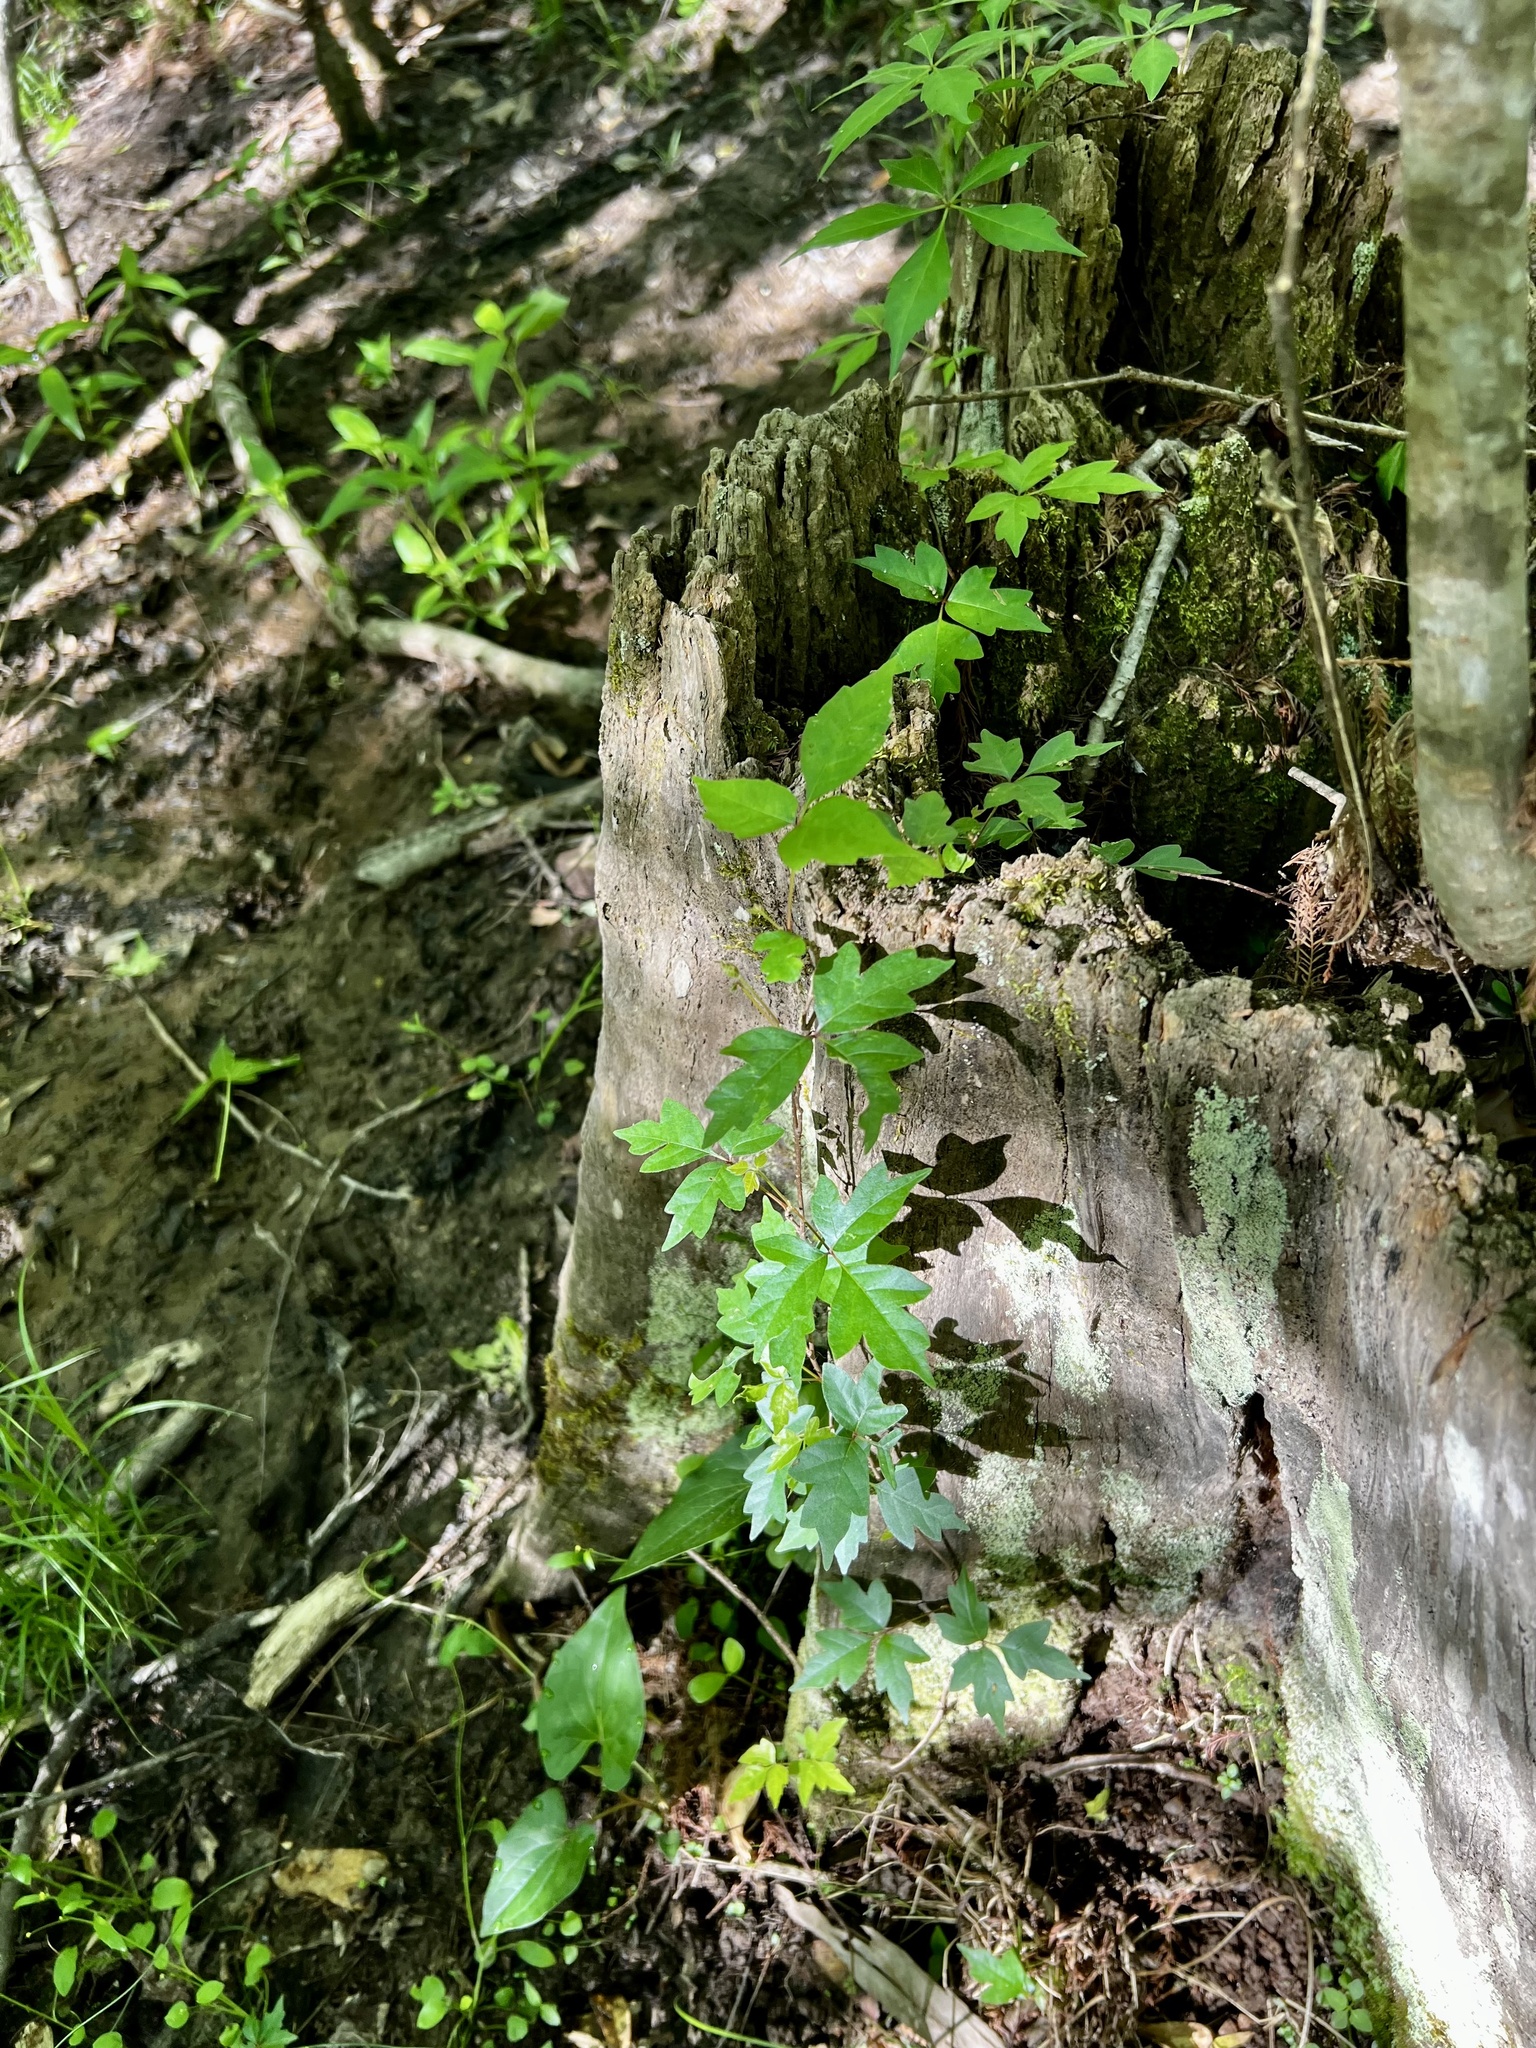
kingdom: Plantae
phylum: Tracheophyta
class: Magnoliopsida
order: Sapindales
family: Anacardiaceae
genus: Toxicodendron
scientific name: Toxicodendron radicans
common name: Poison ivy
